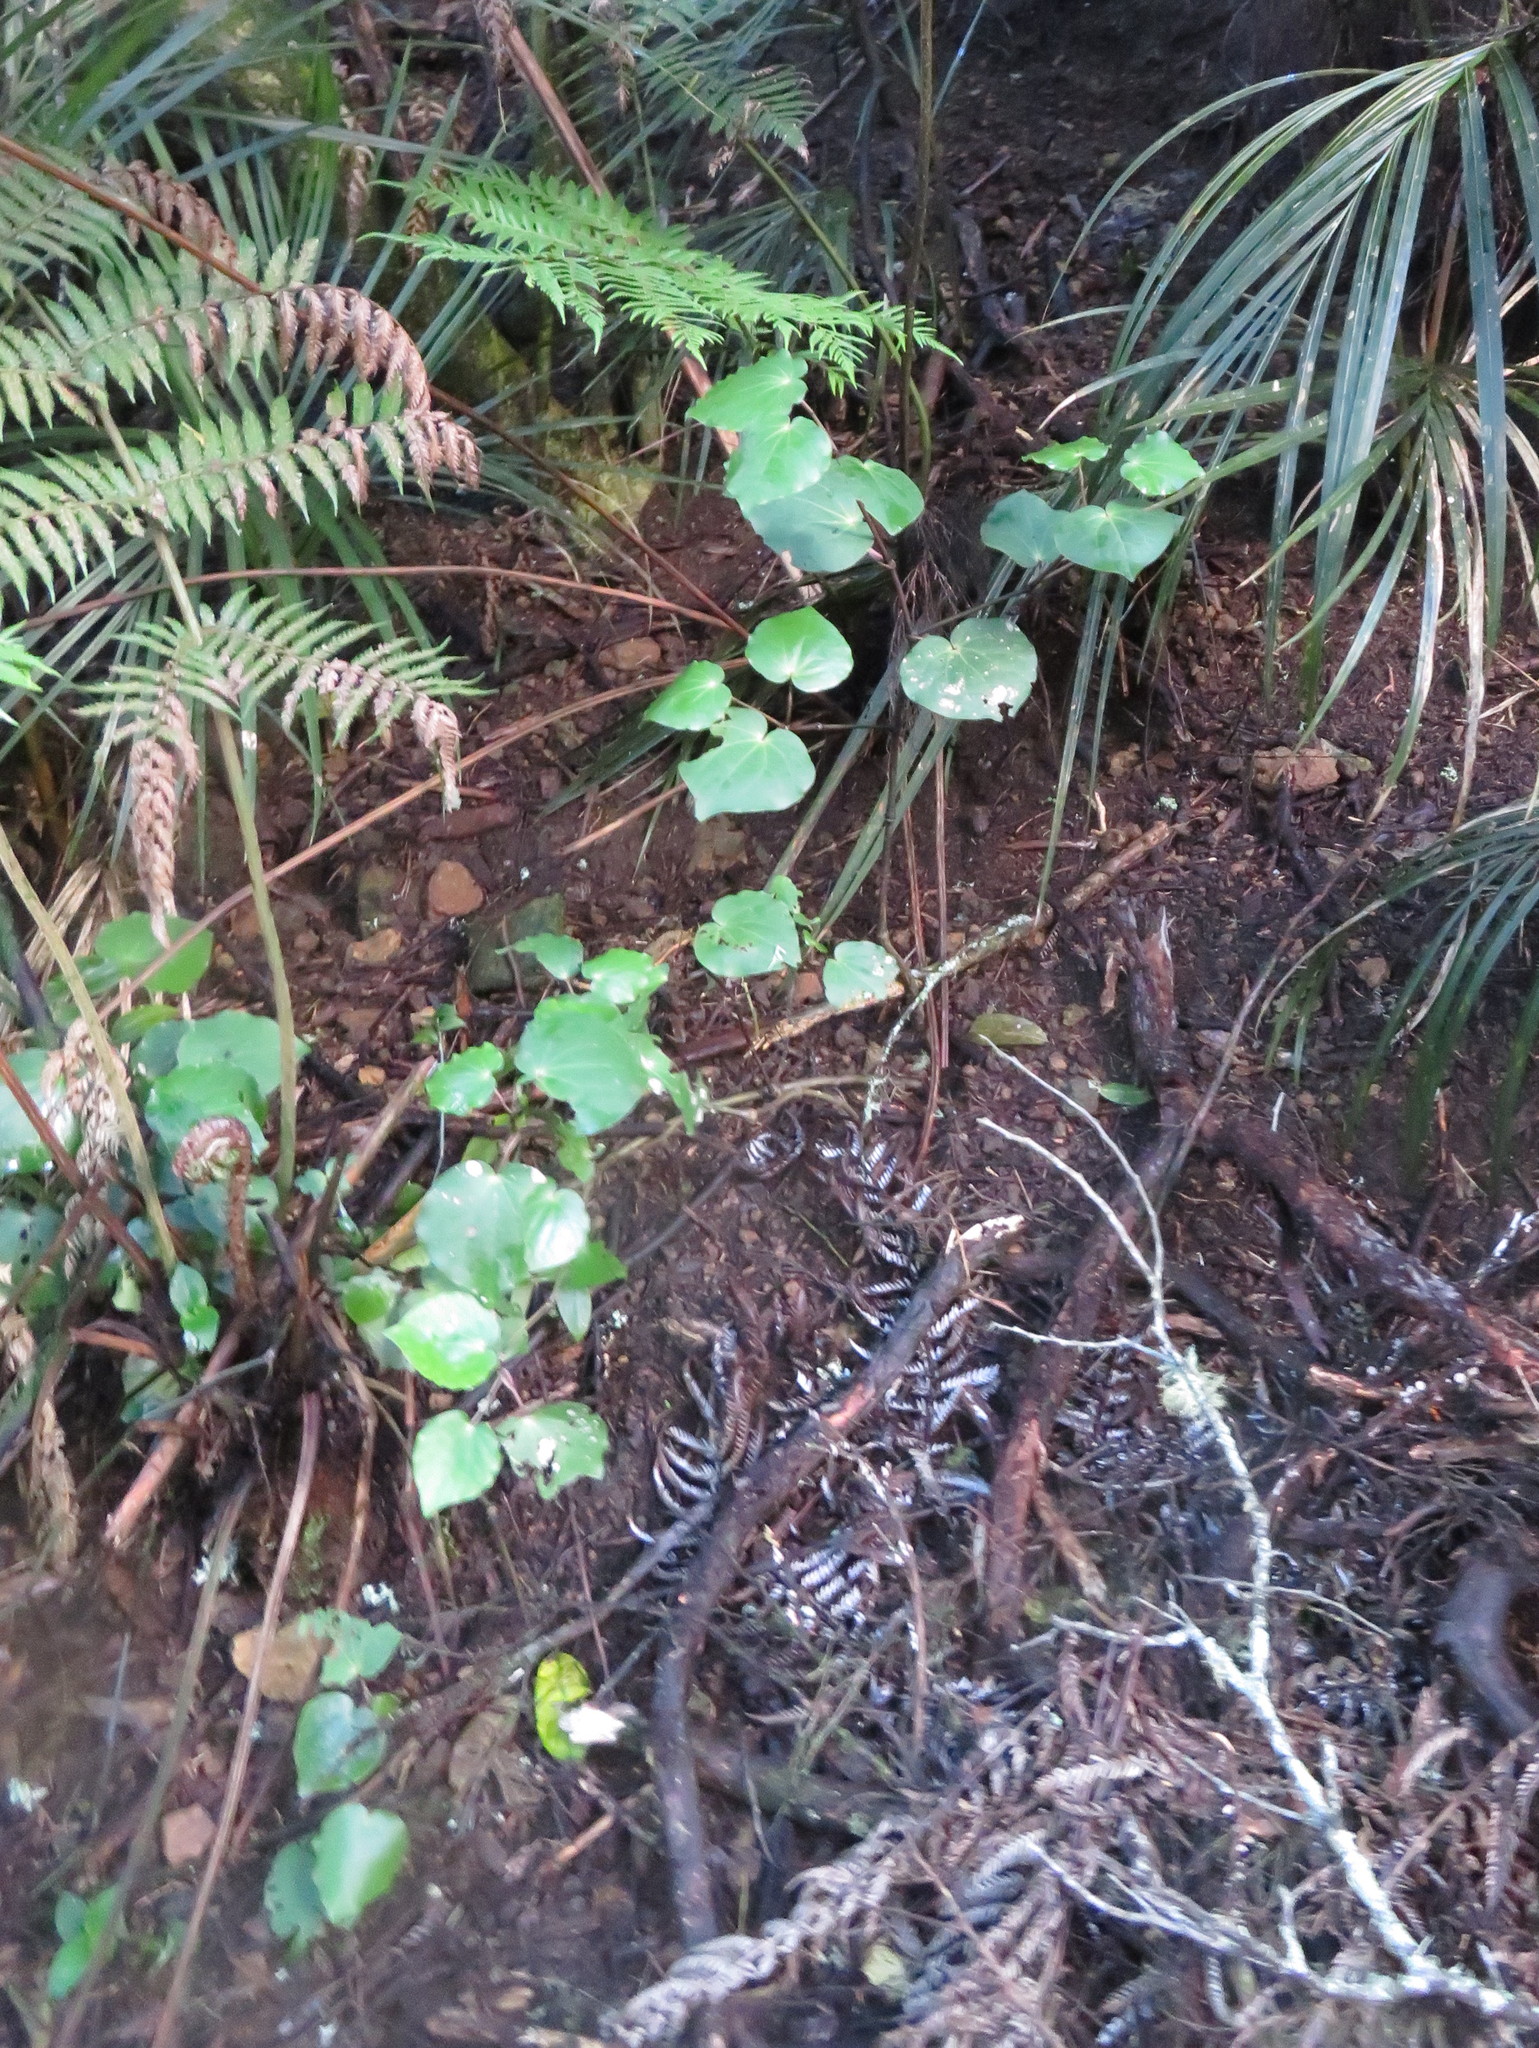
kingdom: Plantae
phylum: Tracheophyta
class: Magnoliopsida
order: Piperales
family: Piperaceae
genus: Macropiper
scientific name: Macropiper excelsum
